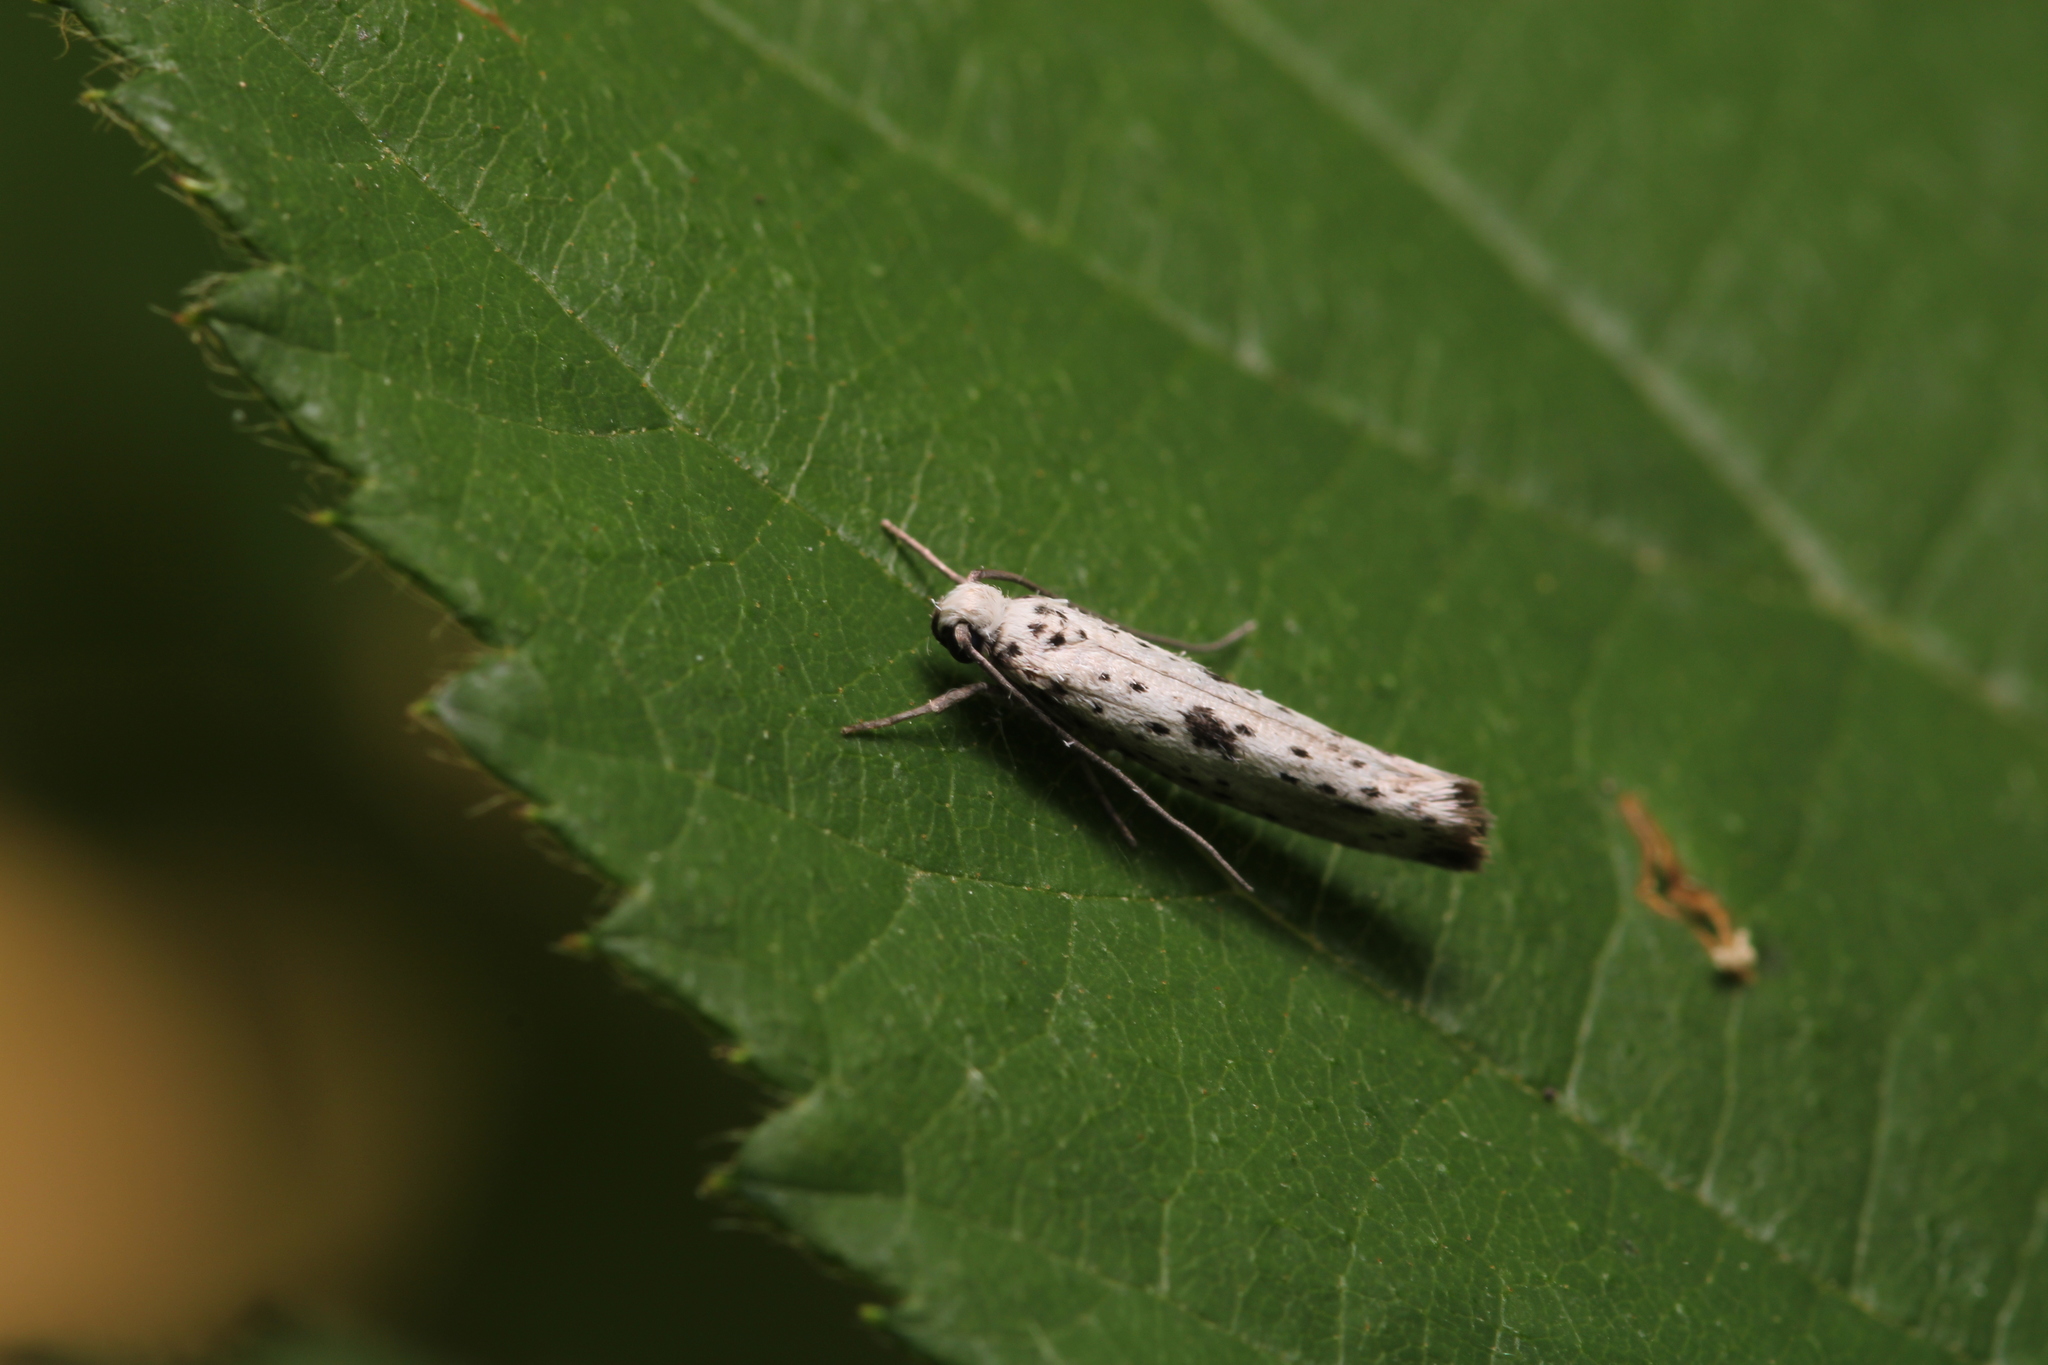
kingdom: Animalia
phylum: Arthropoda
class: Insecta
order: Lepidoptera
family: Yponomeutidae
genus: Yponomeuta
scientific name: Yponomeuta plumbella
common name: Black-tipped ermine
